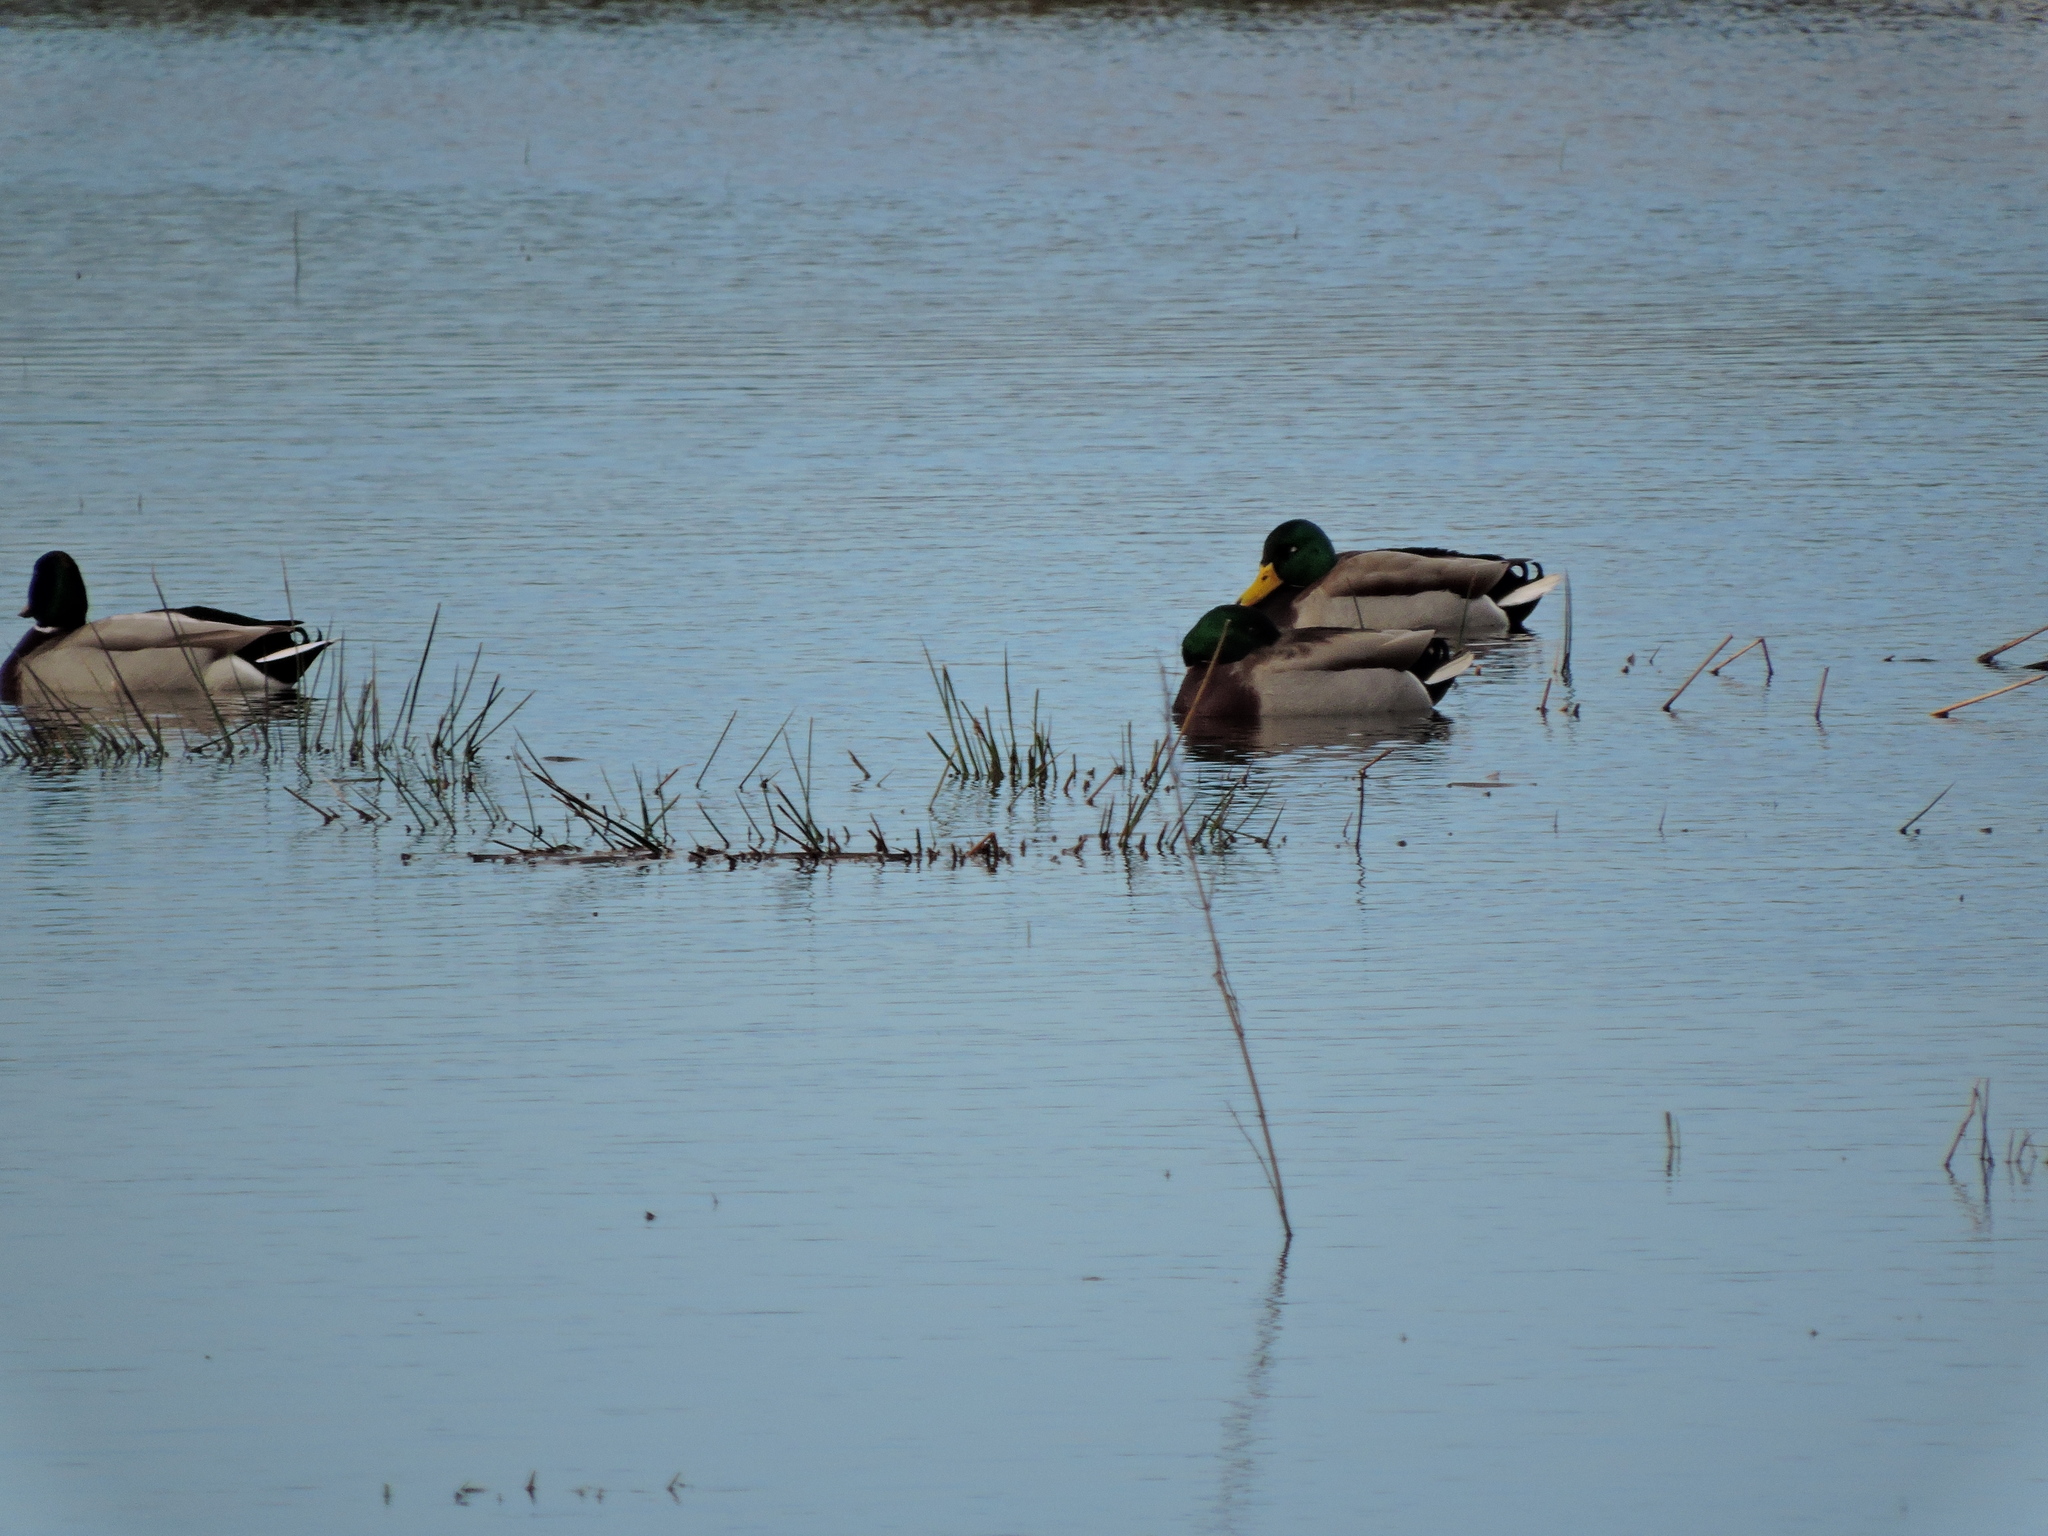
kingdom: Animalia
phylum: Chordata
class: Aves
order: Anseriformes
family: Anatidae
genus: Anas
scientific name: Anas platyrhynchos
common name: Mallard
